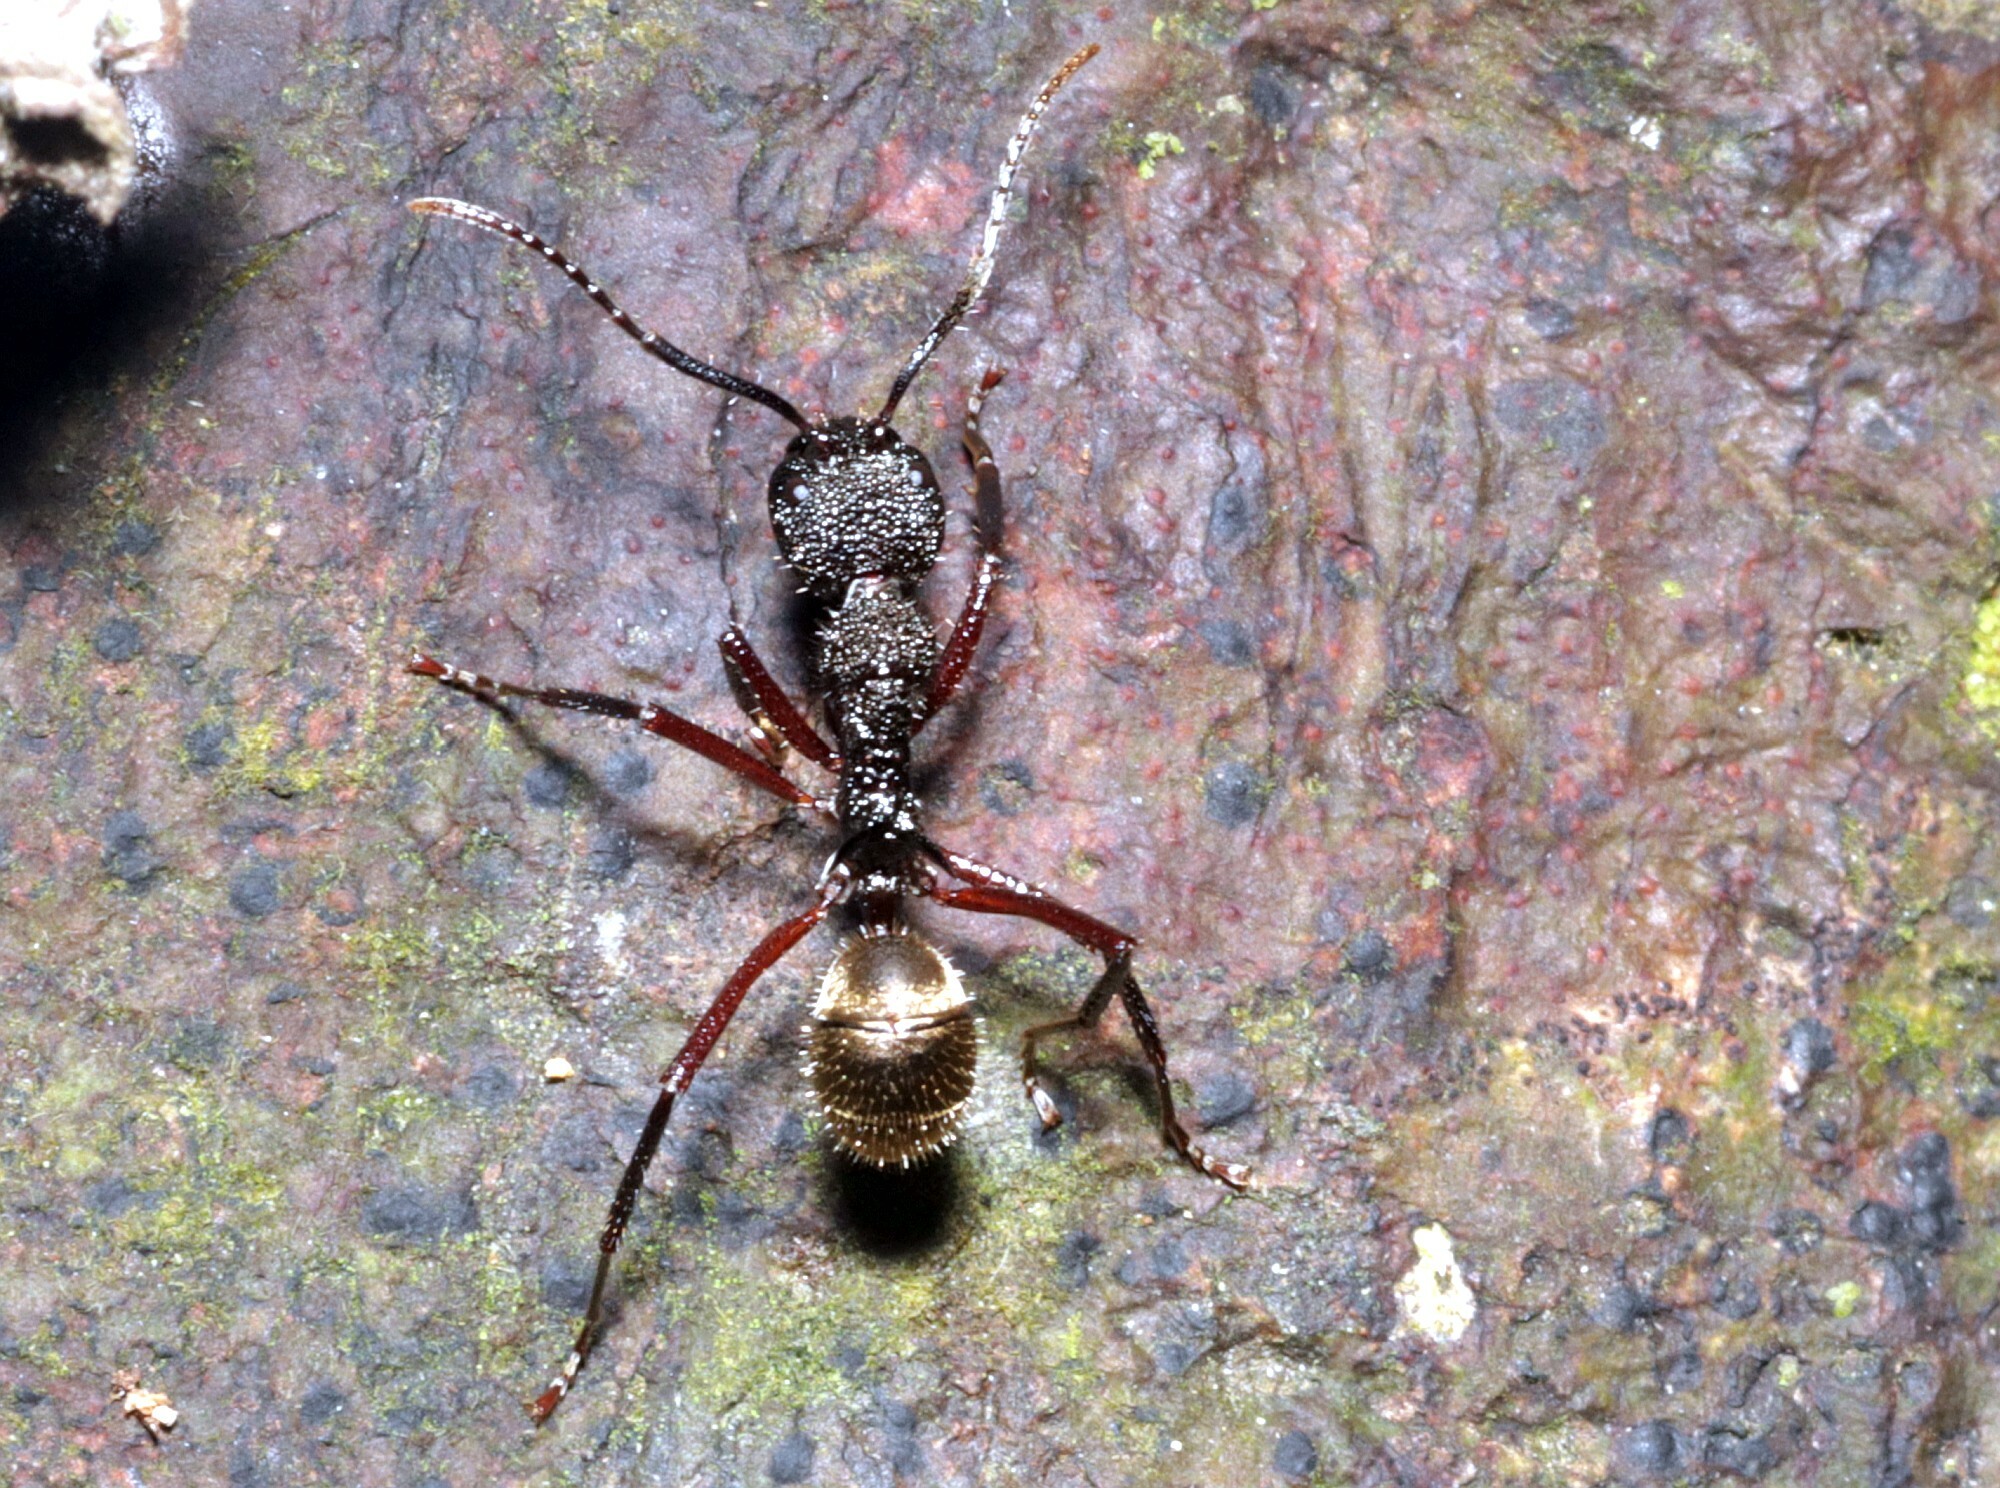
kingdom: Animalia
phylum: Arthropoda
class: Insecta
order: Hymenoptera
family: Formicidae
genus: Dolichoderus
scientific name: Dolichoderus decollatus
